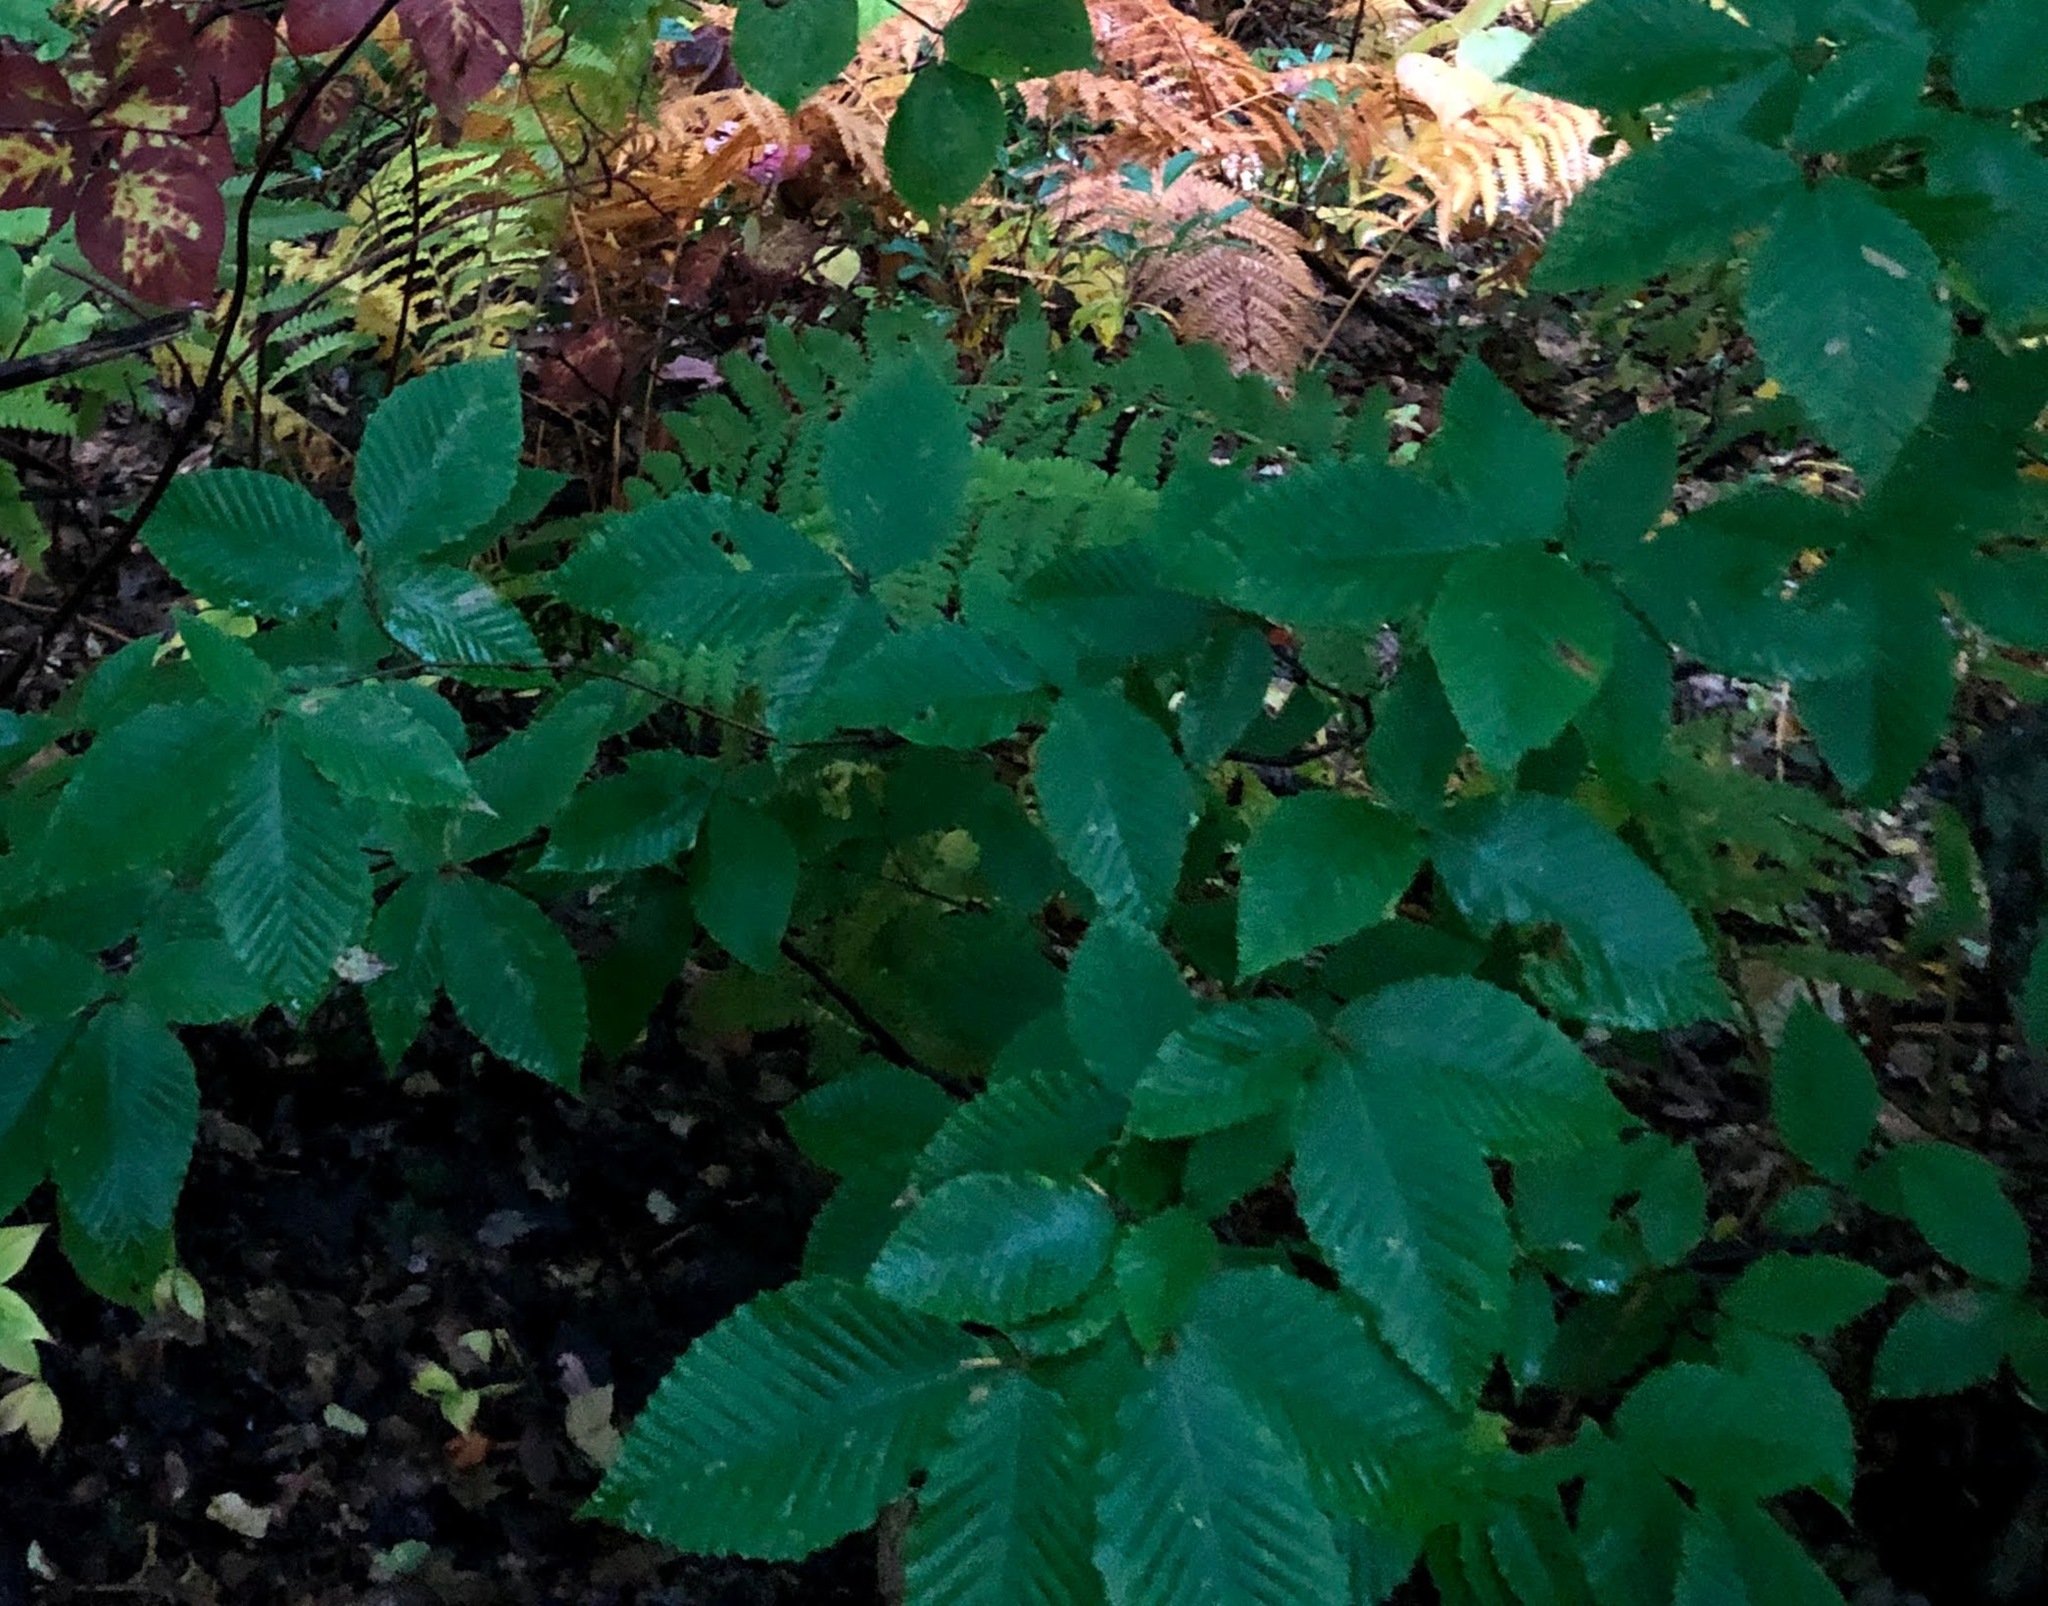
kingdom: Plantae
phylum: Tracheophyta
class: Magnoliopsida
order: Fagales
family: Fagaceae
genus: Fagus
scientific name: Fagus grandifolia
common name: American beech
